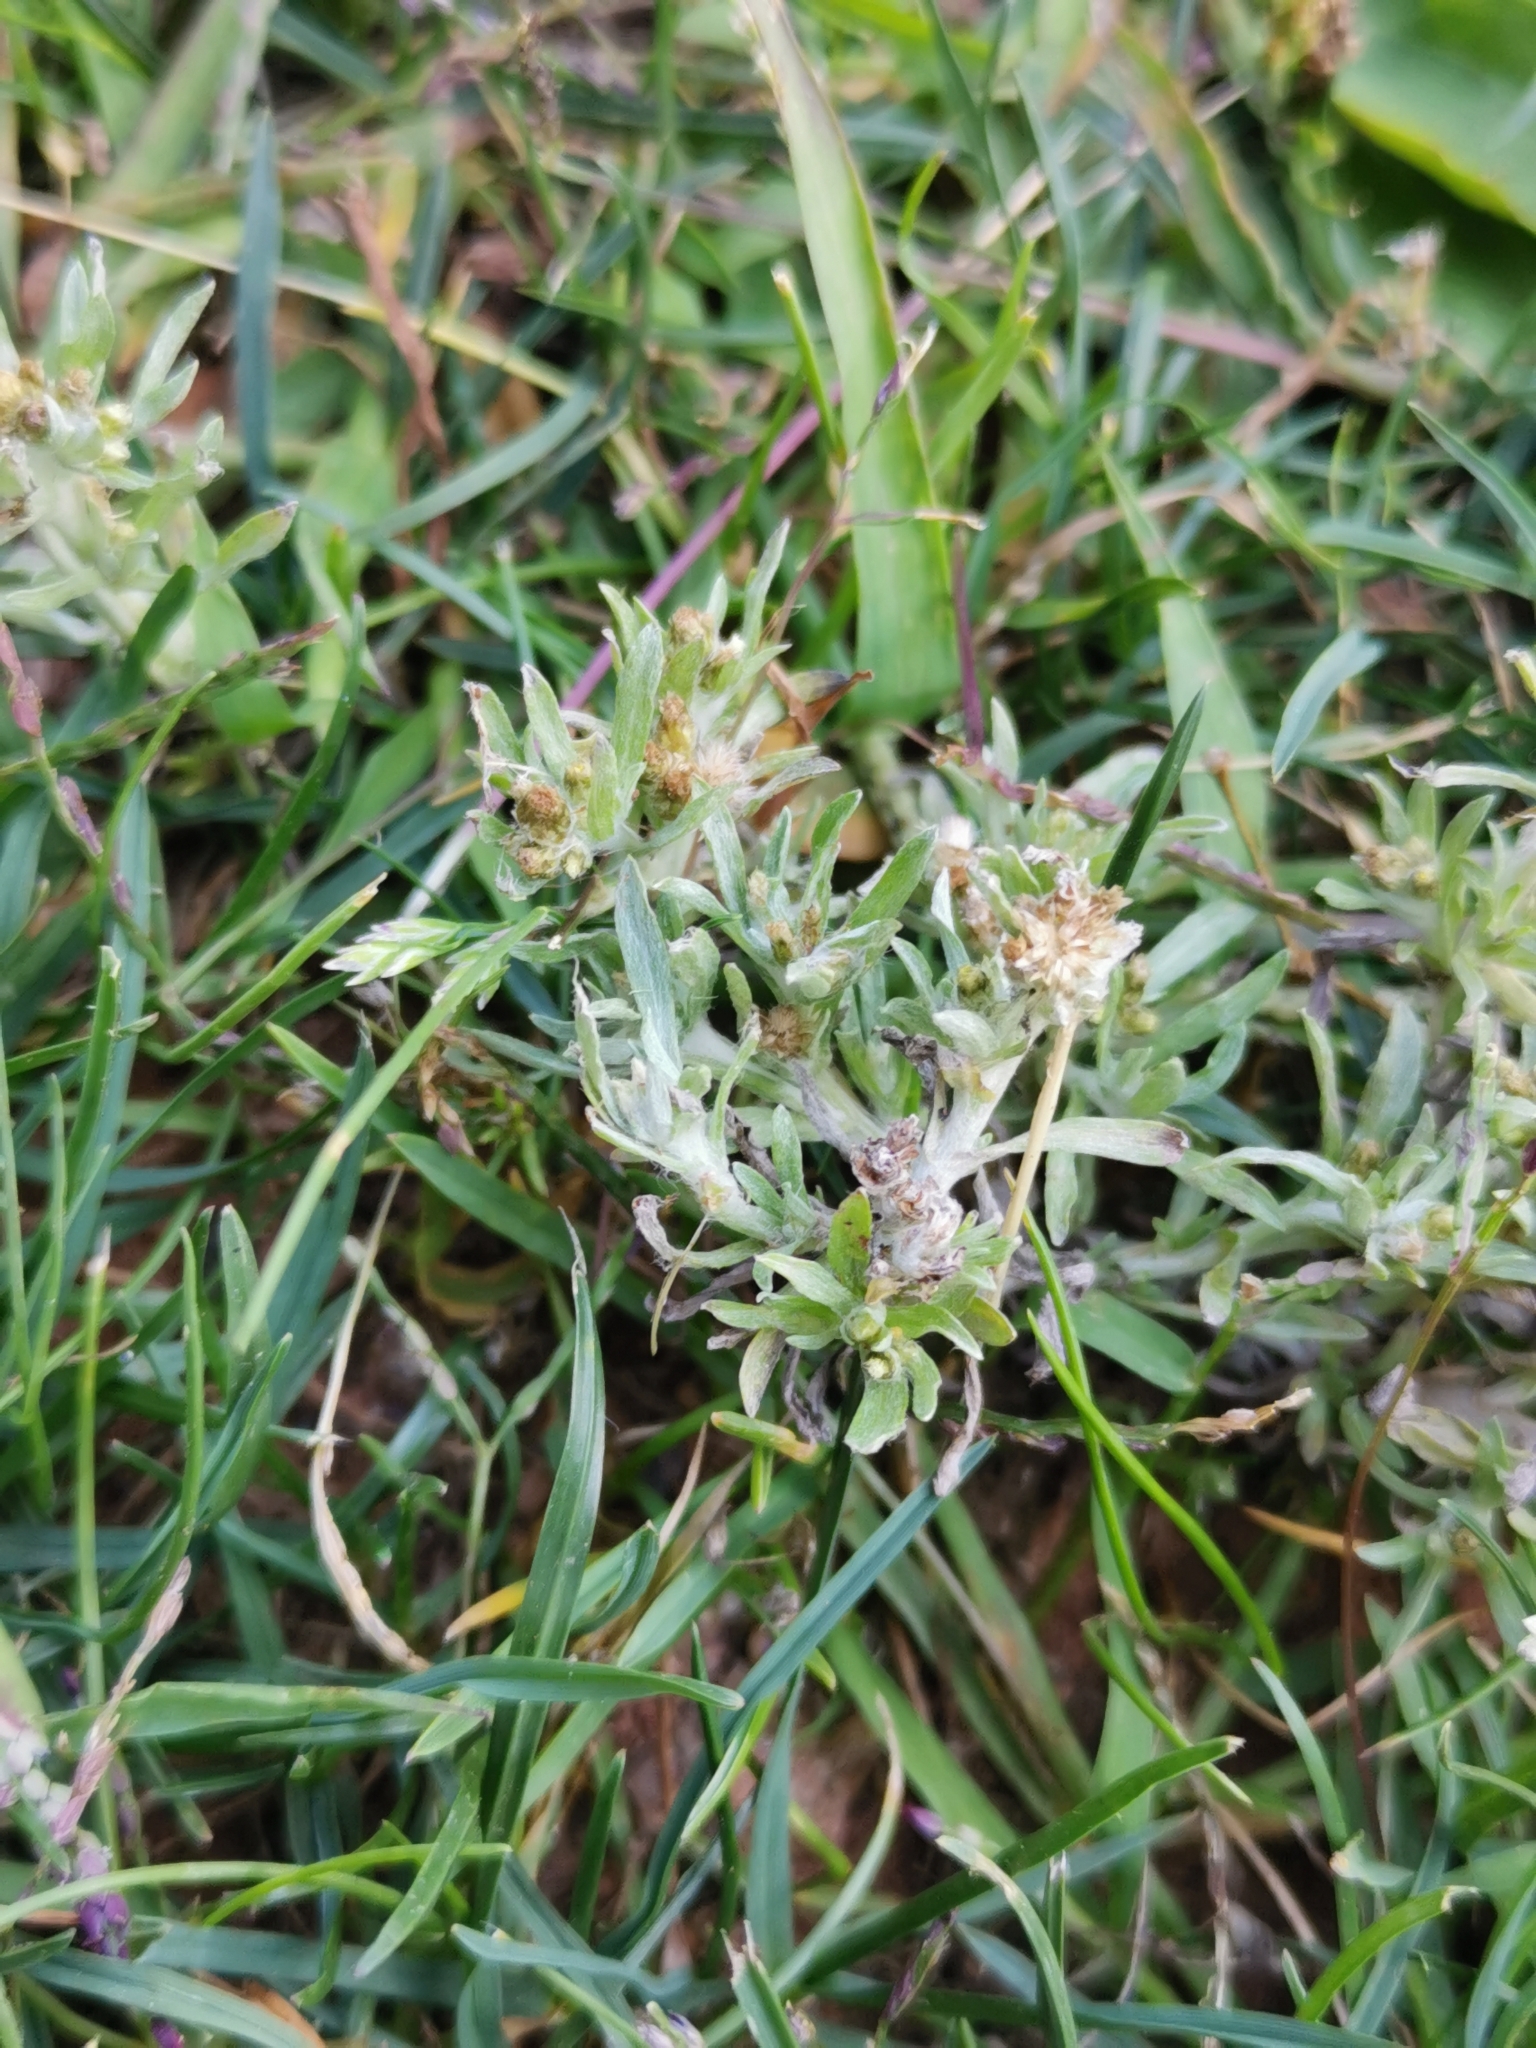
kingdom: Plantae
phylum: Tracheophyta
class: Magnoliopsida
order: Asterales
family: Asteraceae
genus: Gnaphalium
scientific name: Gnaphalium uliginosum
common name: Marsh cudweed
